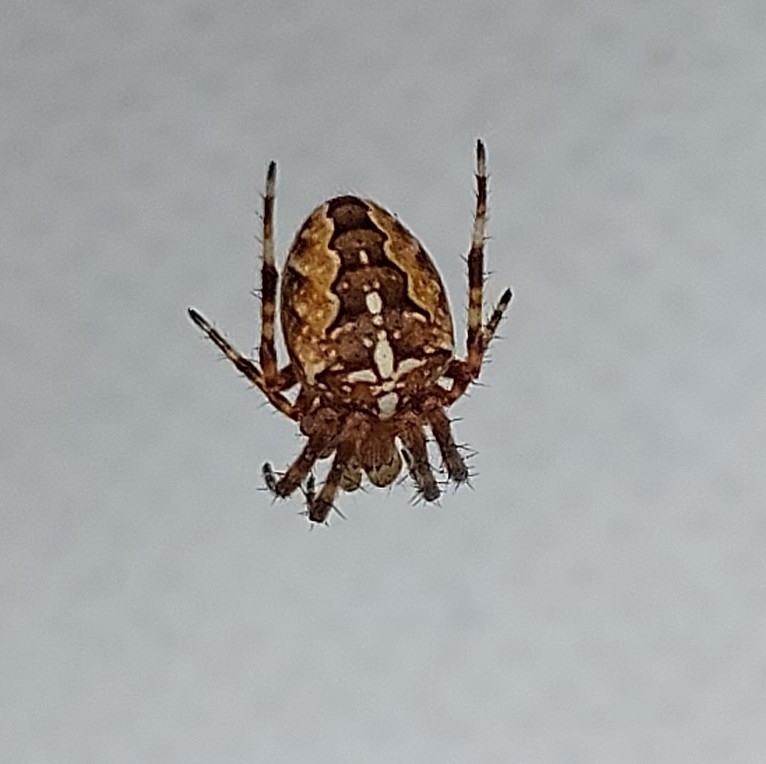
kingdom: Animalia
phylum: Arthropoda
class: Arachnida
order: Araneae
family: Araneidae
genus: Araneus
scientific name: Araneus diadematus
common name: Cross orbweaver
